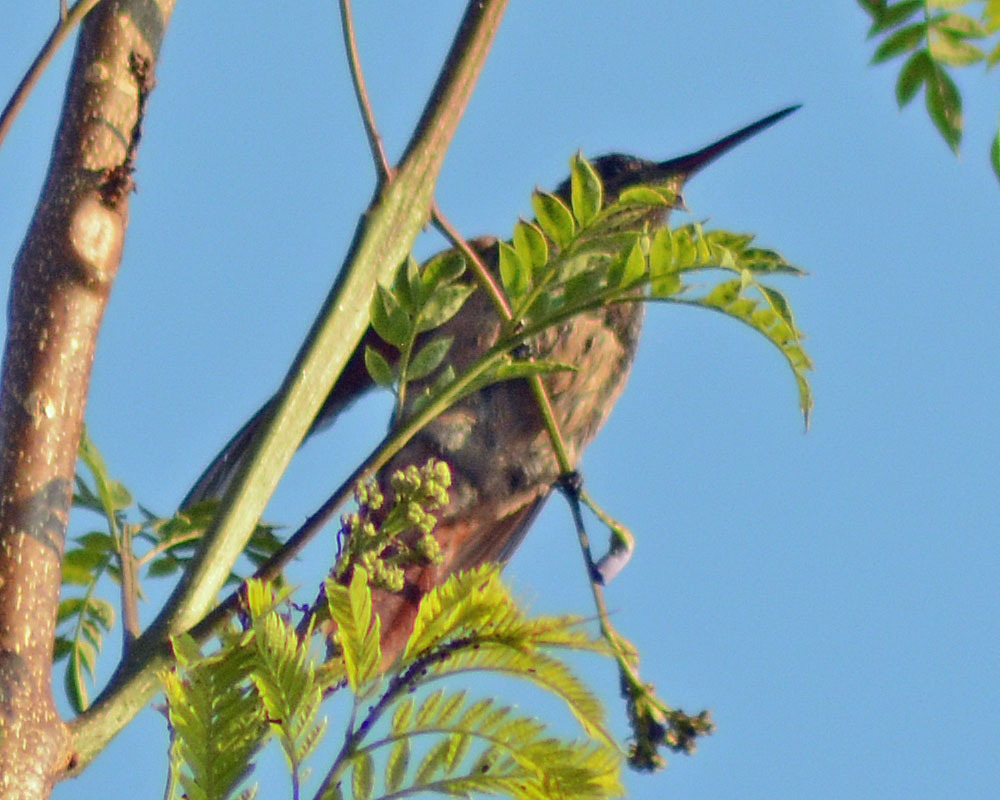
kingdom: Animalia
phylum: Chordata
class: Aves
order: Apodiformes
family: Trochilidae
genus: Saucerottia
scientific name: Saucerottia beryllina
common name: Berylline hummingbird
